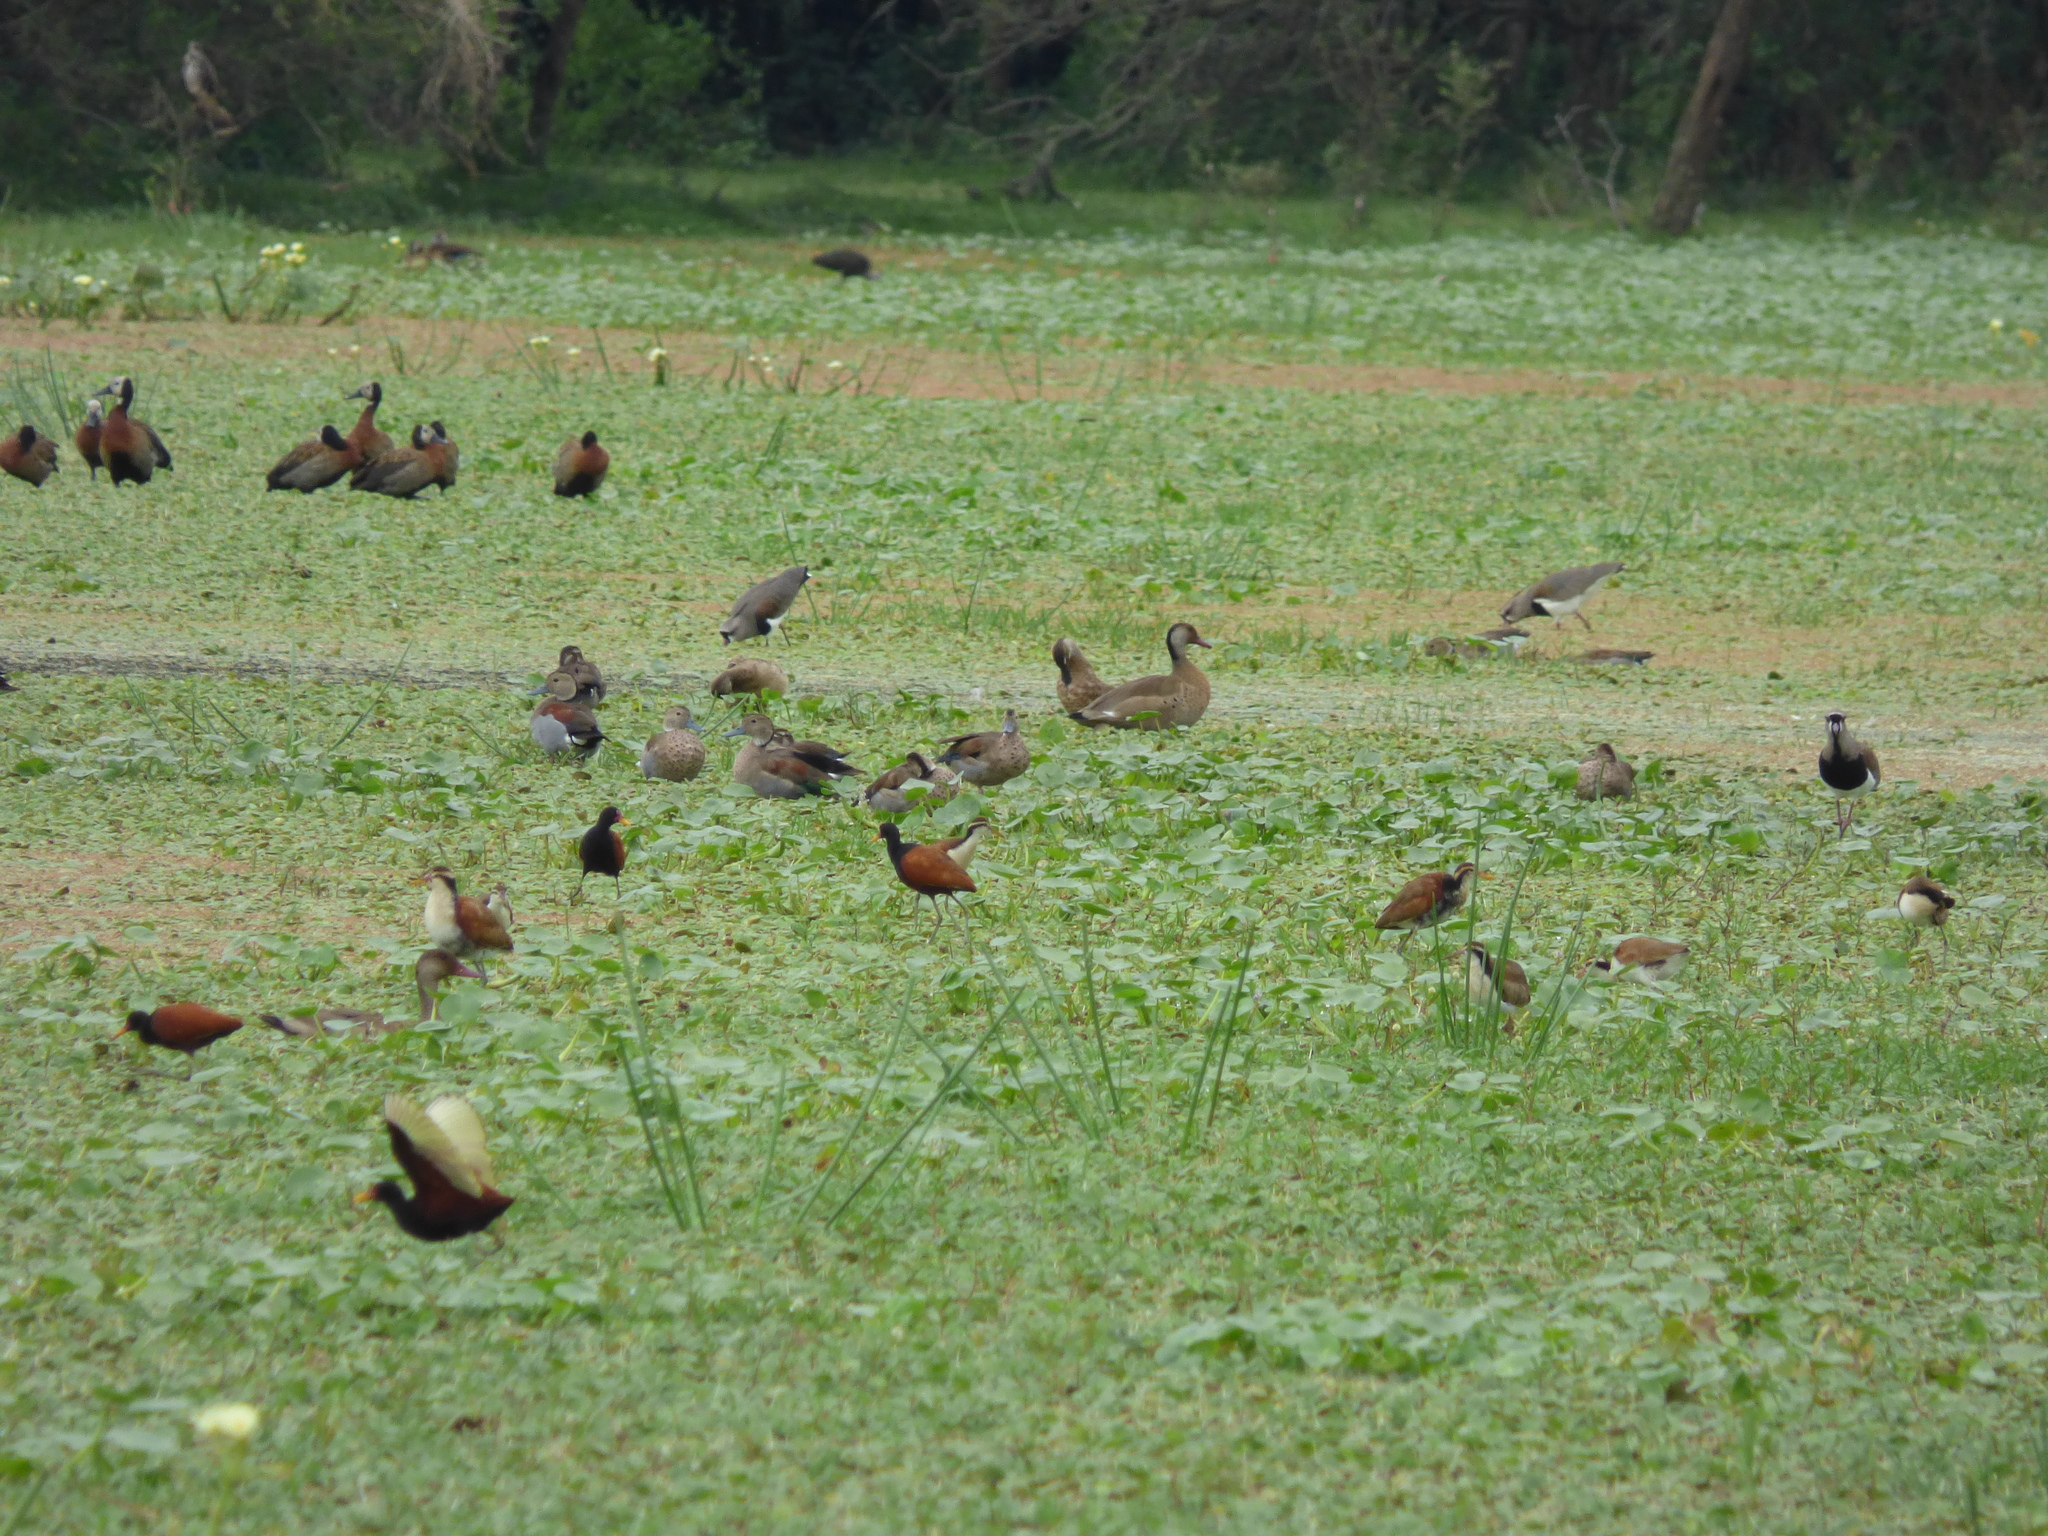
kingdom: Animalia
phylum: Chordata
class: Aves
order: Anseriformes
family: Anatidae
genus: Amazonetta
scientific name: Amazonetta brasiliensis
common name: Brazilian teal
